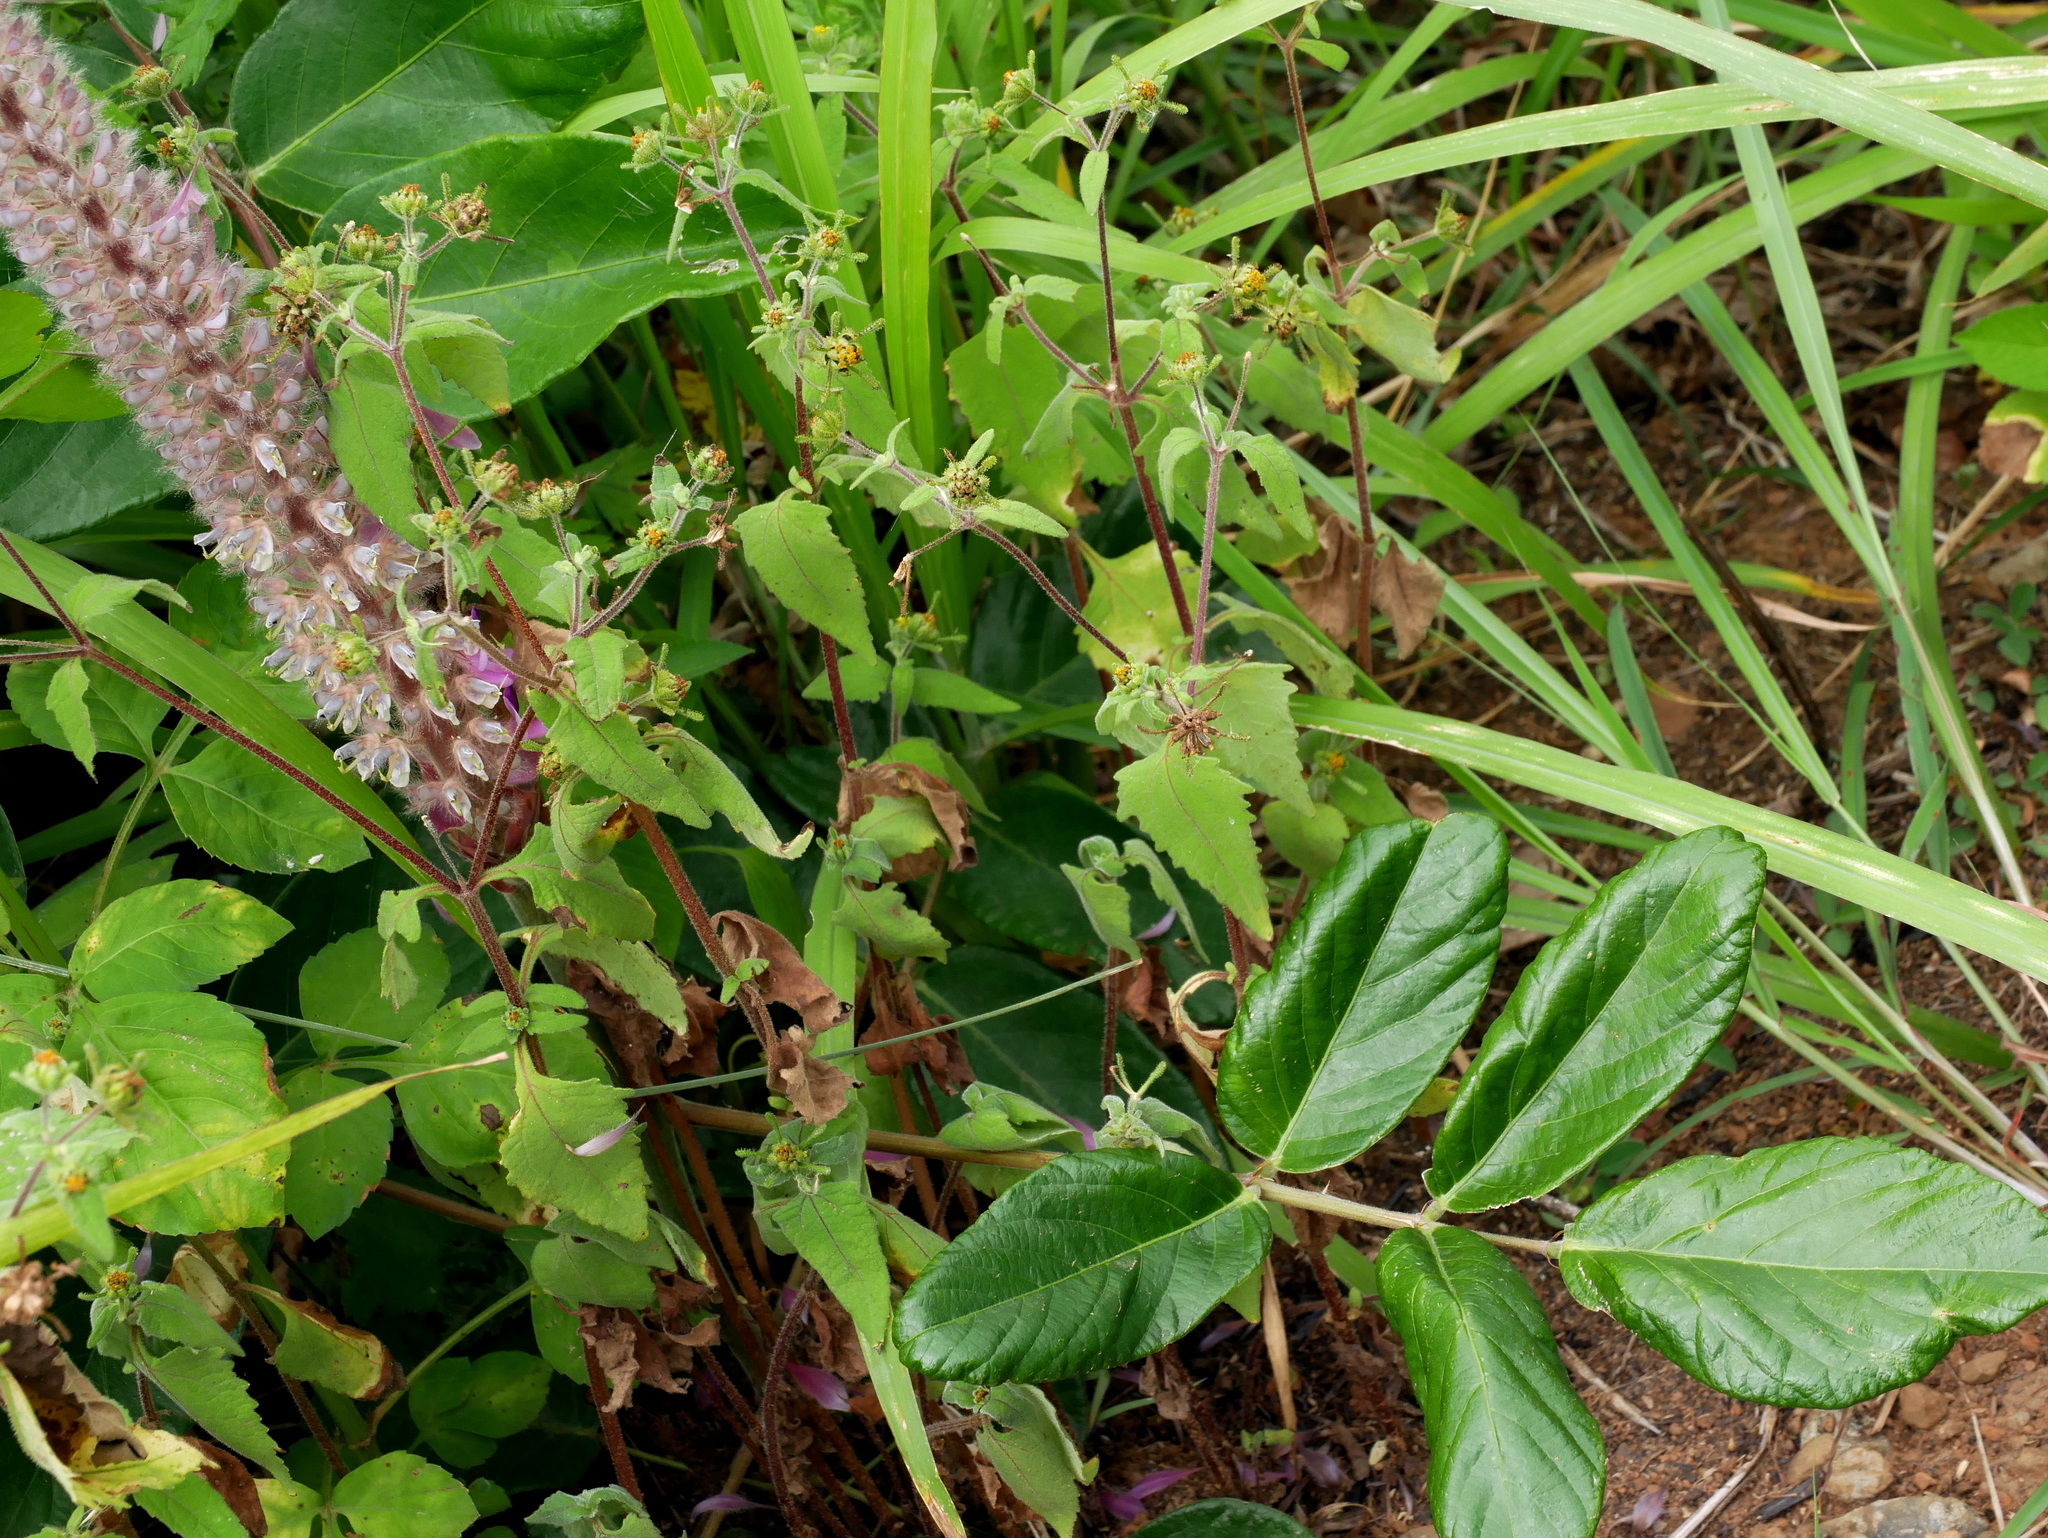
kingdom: Plantae
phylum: Tracheophyta
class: Magnoliopsida
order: Fabales
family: Fabaceae
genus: Uraria
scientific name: Uraria crinita
